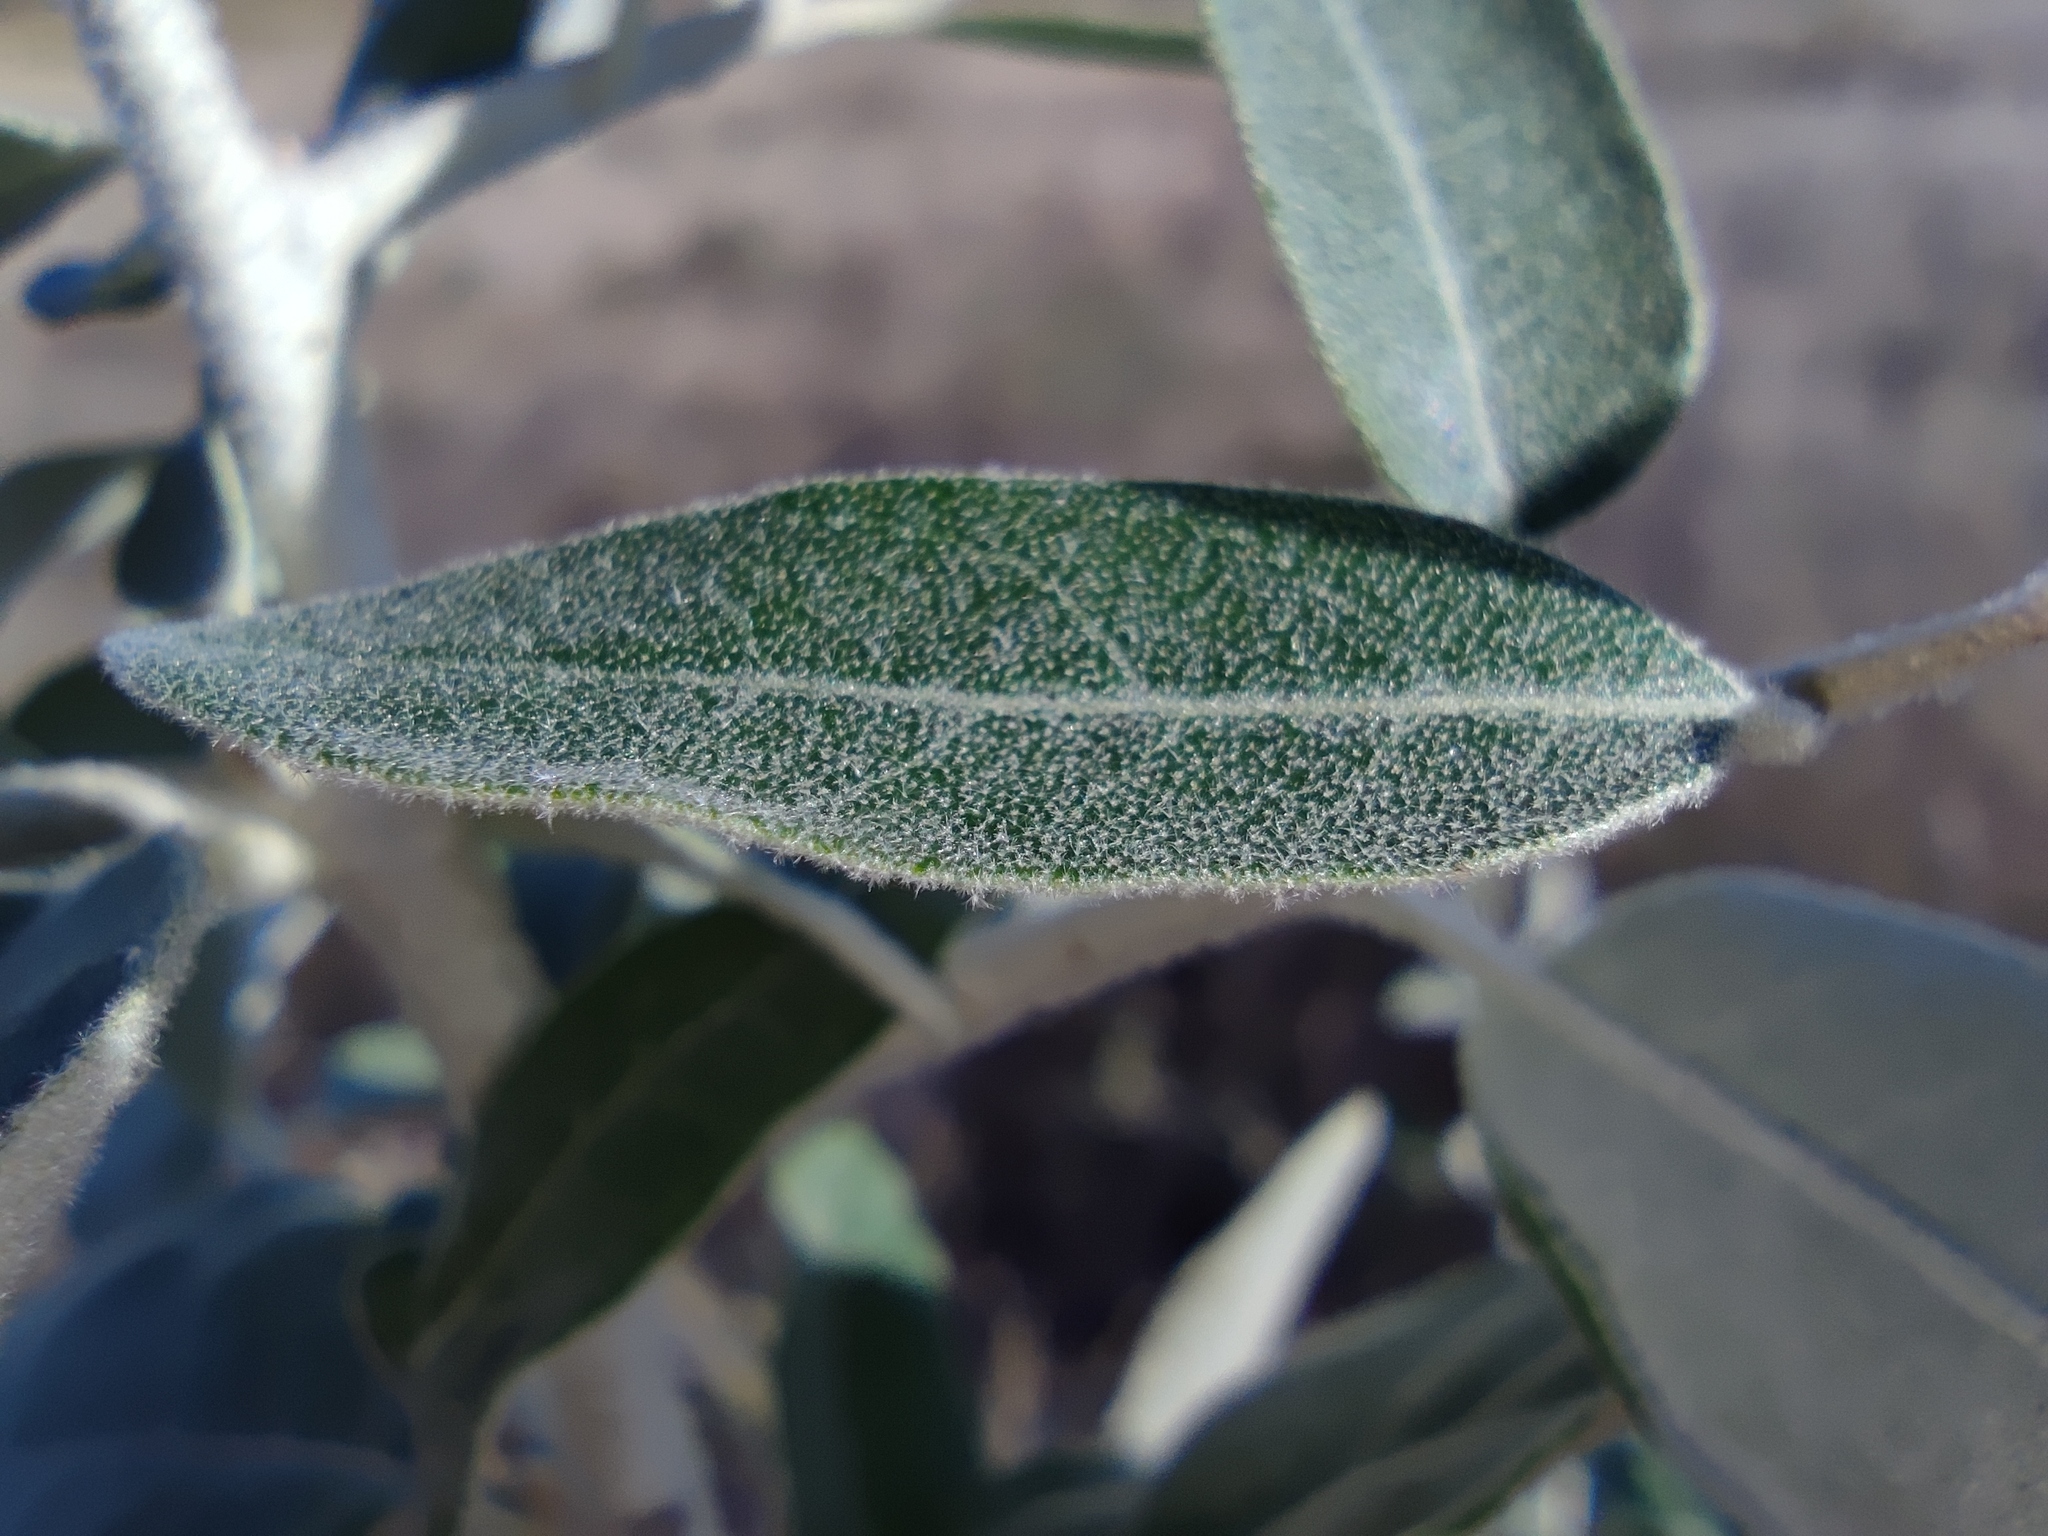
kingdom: Plantae
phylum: Tracheophyta
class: Magnoliopsida
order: Rosales
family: Elaeagnaceae
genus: Elaeagnus
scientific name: Elaeagnus angustifolia
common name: Russian olive
